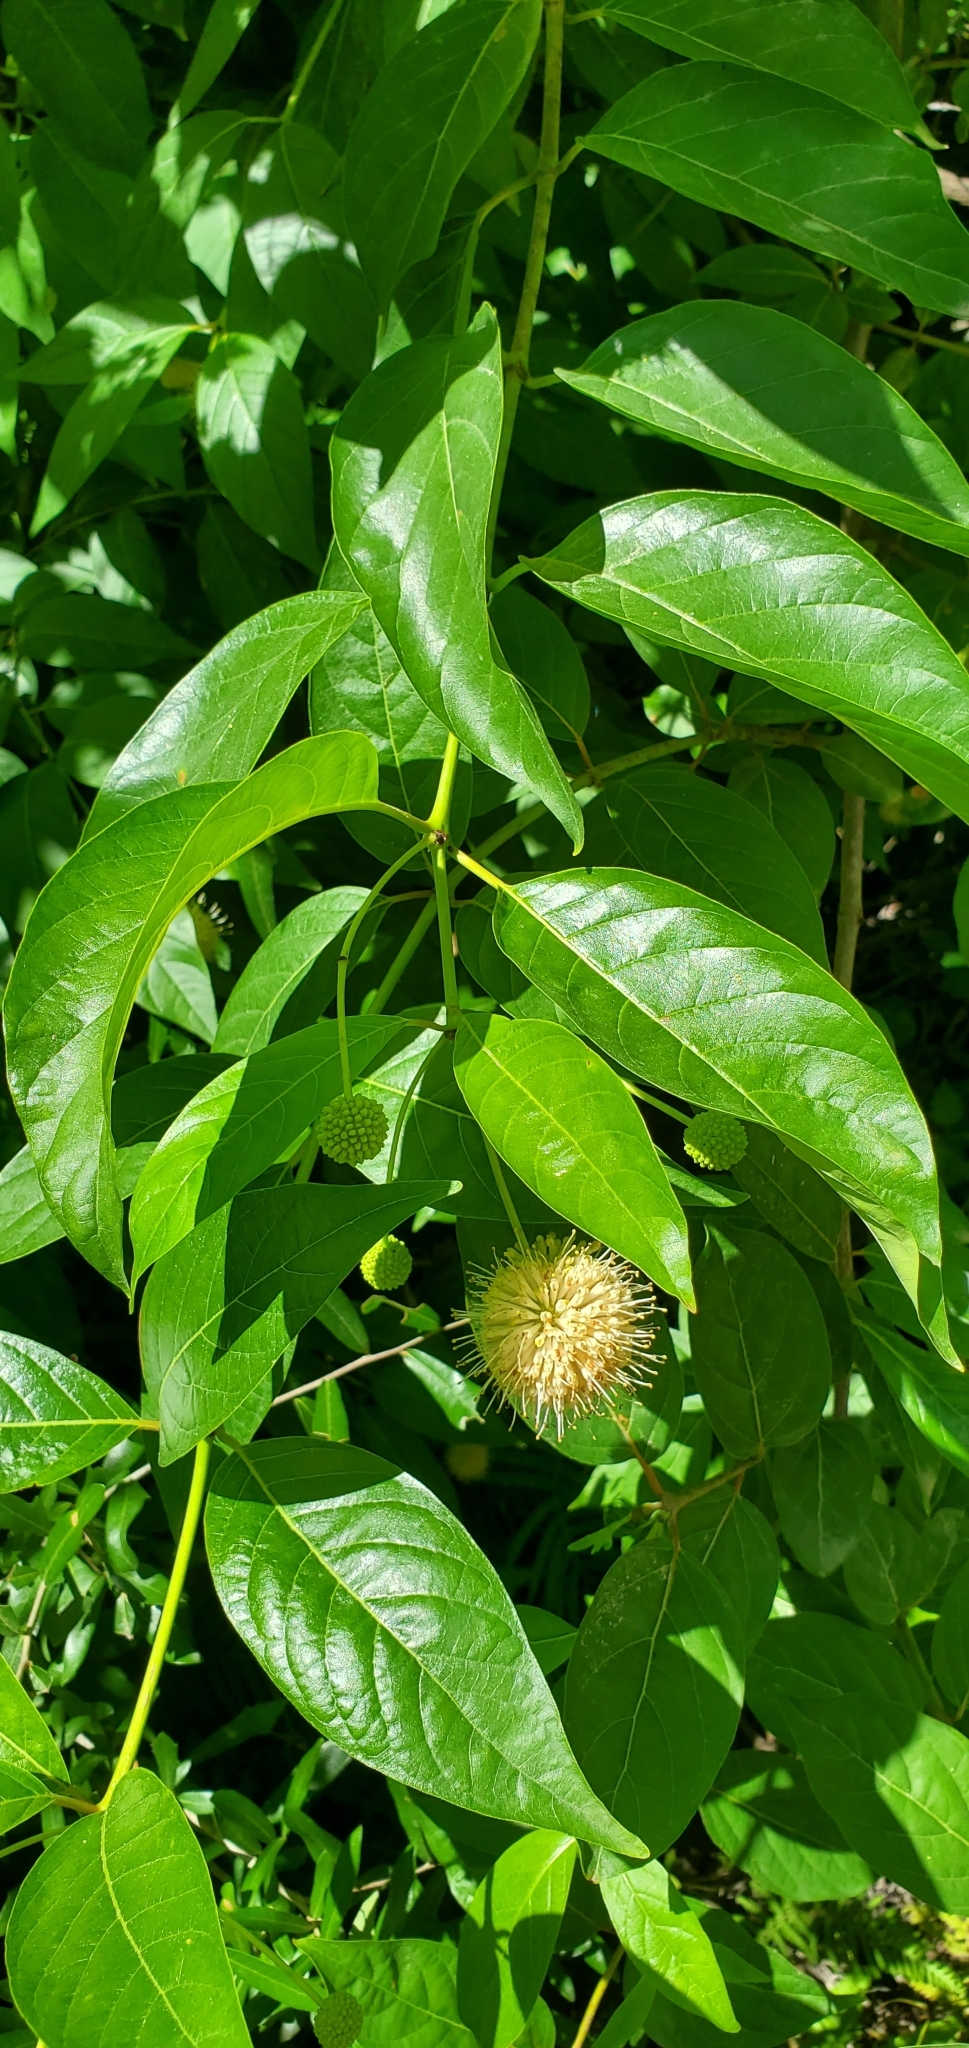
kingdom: Plantae
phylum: Tracheophyta
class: Magnoliopsida
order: Gentianales
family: Rubiaceae
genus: Cephalanthus
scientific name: Cephalanthus occidentalis
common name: Button-willow
